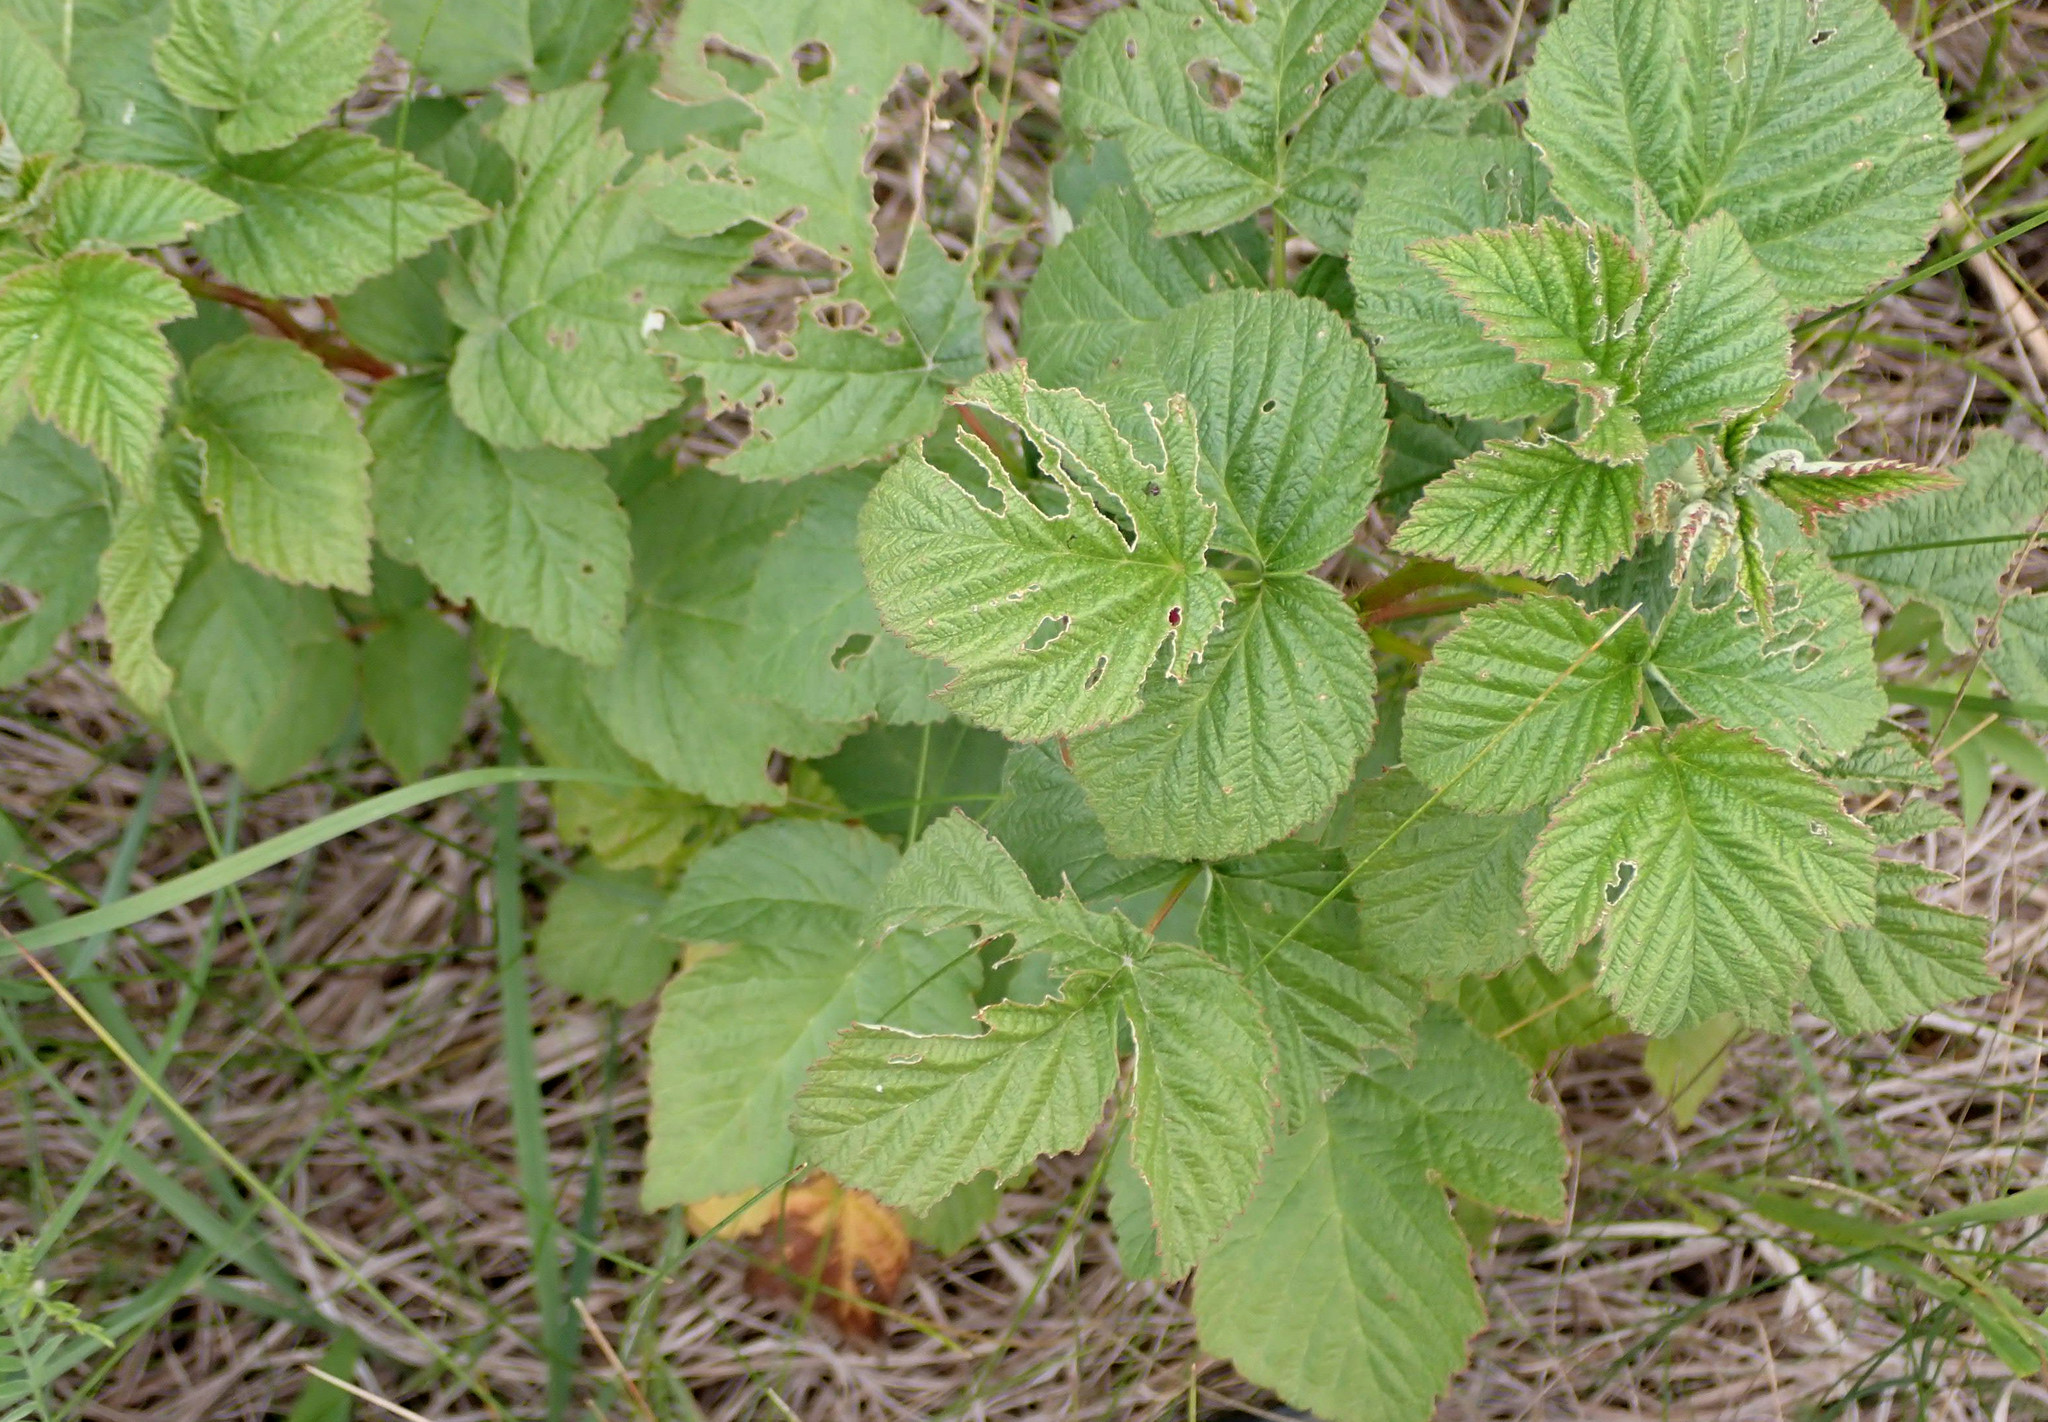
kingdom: Plantae
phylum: Tracheophyta
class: Magnoliopsida
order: Rosales
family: Rosaceae
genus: Rubus
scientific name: Rubus idaeus
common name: Raspberry
